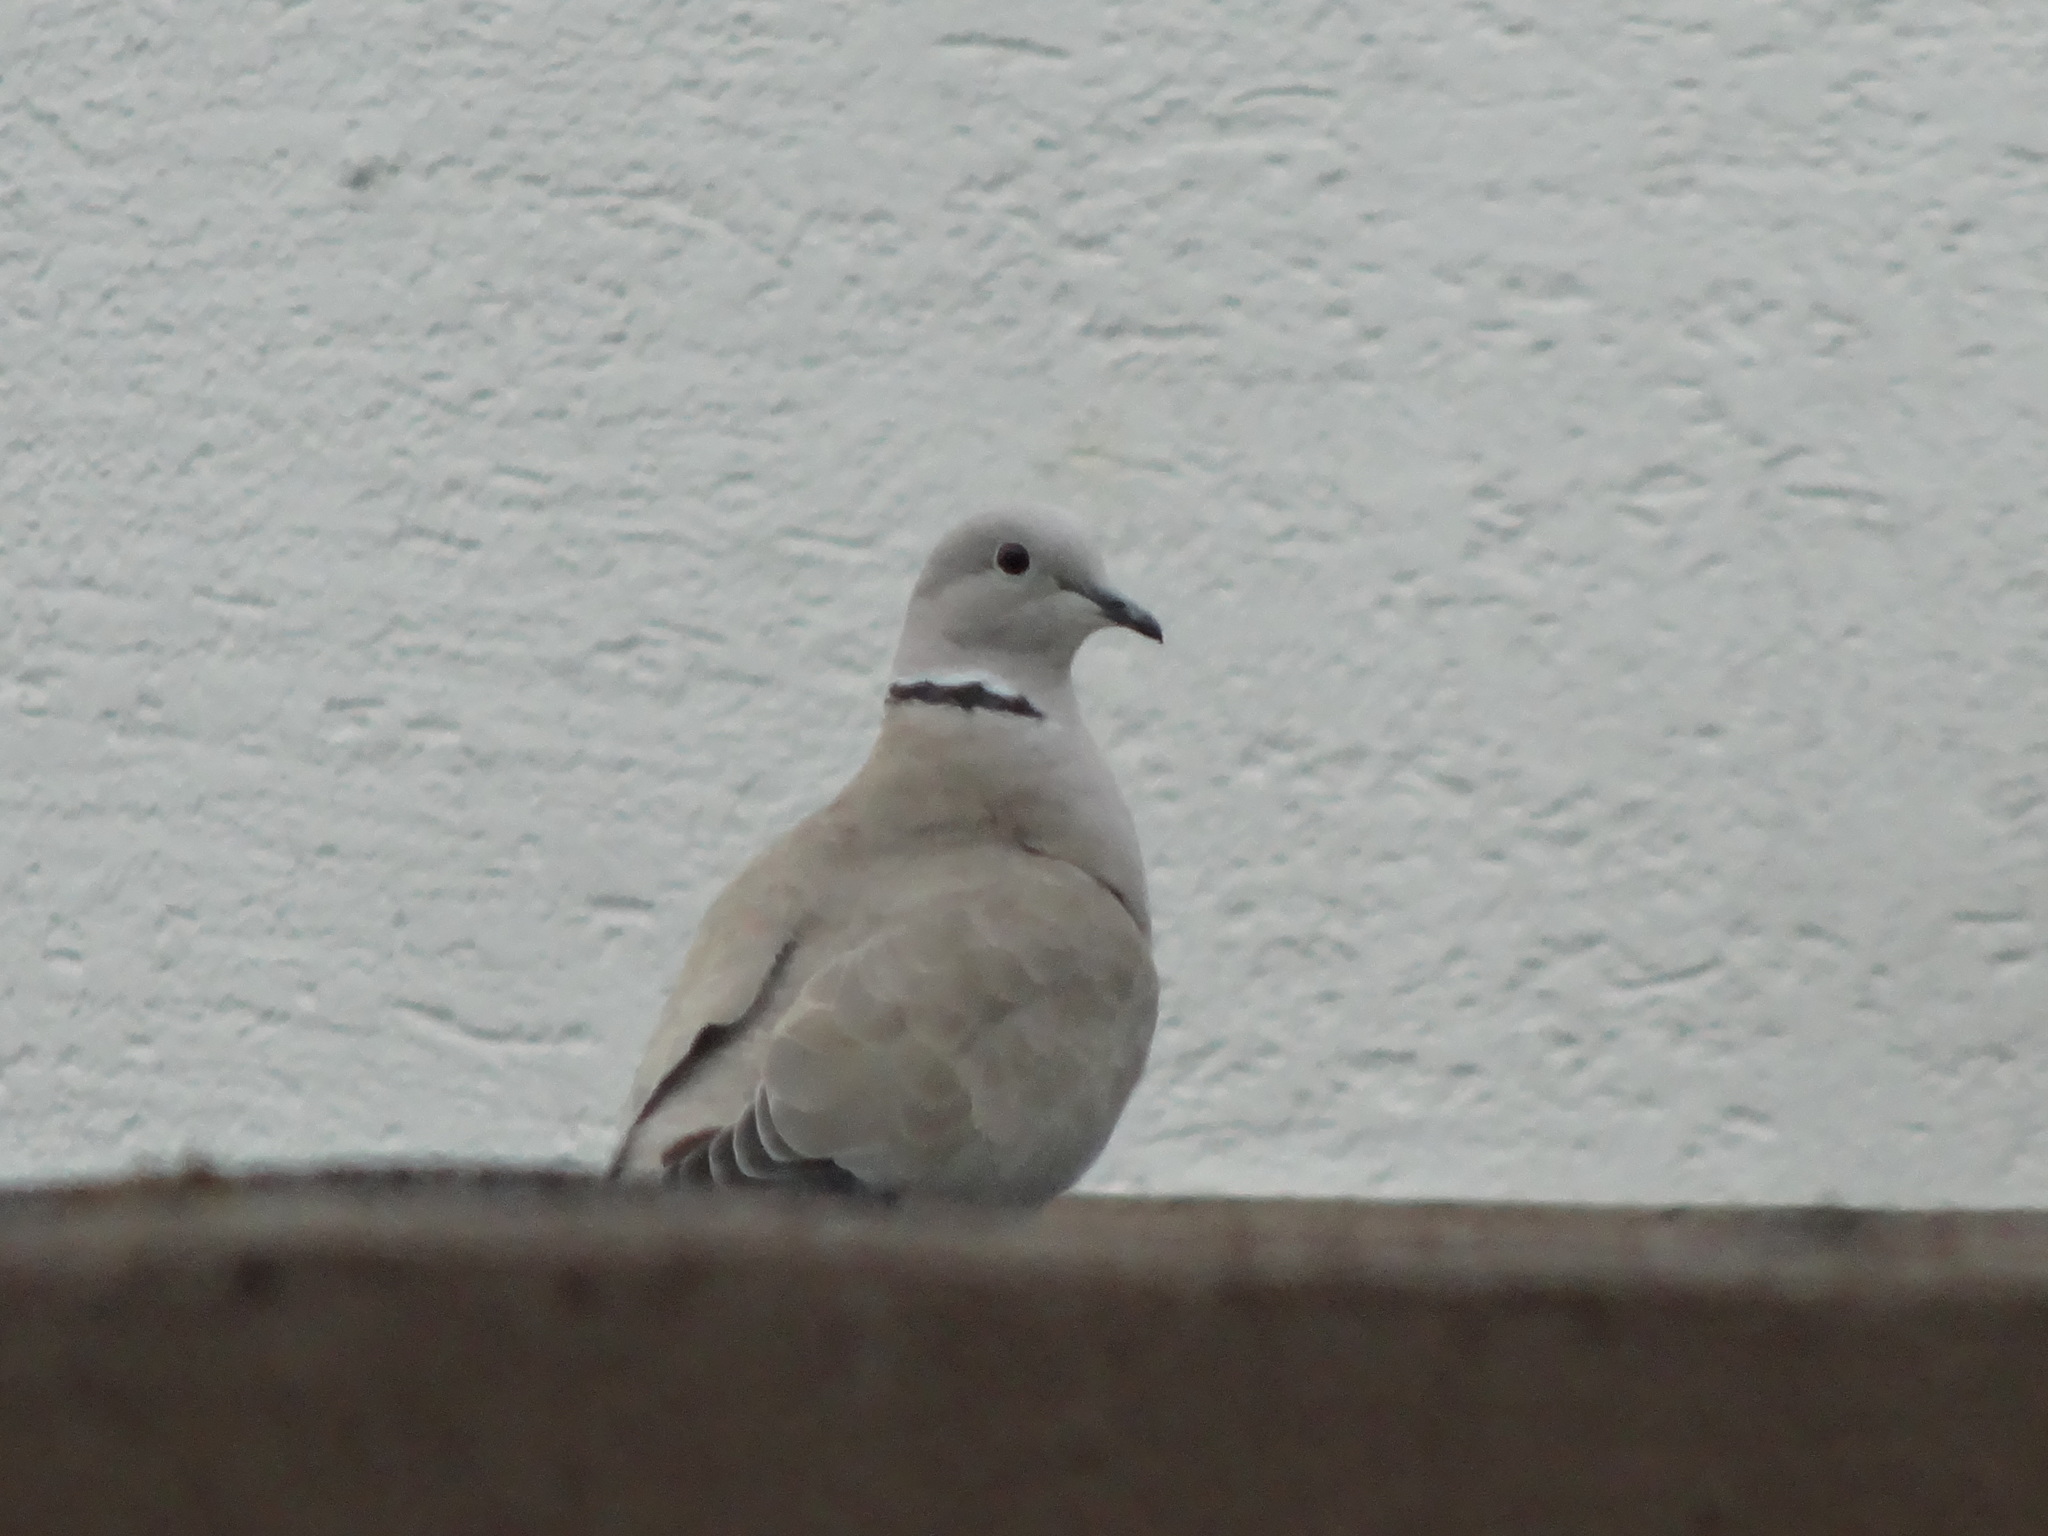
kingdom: Animalia
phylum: Chordata
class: Aves
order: Columbiformes
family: Columbidae
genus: Streptopelia
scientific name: Streptopelia decaocto
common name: Eurasian collared dove
